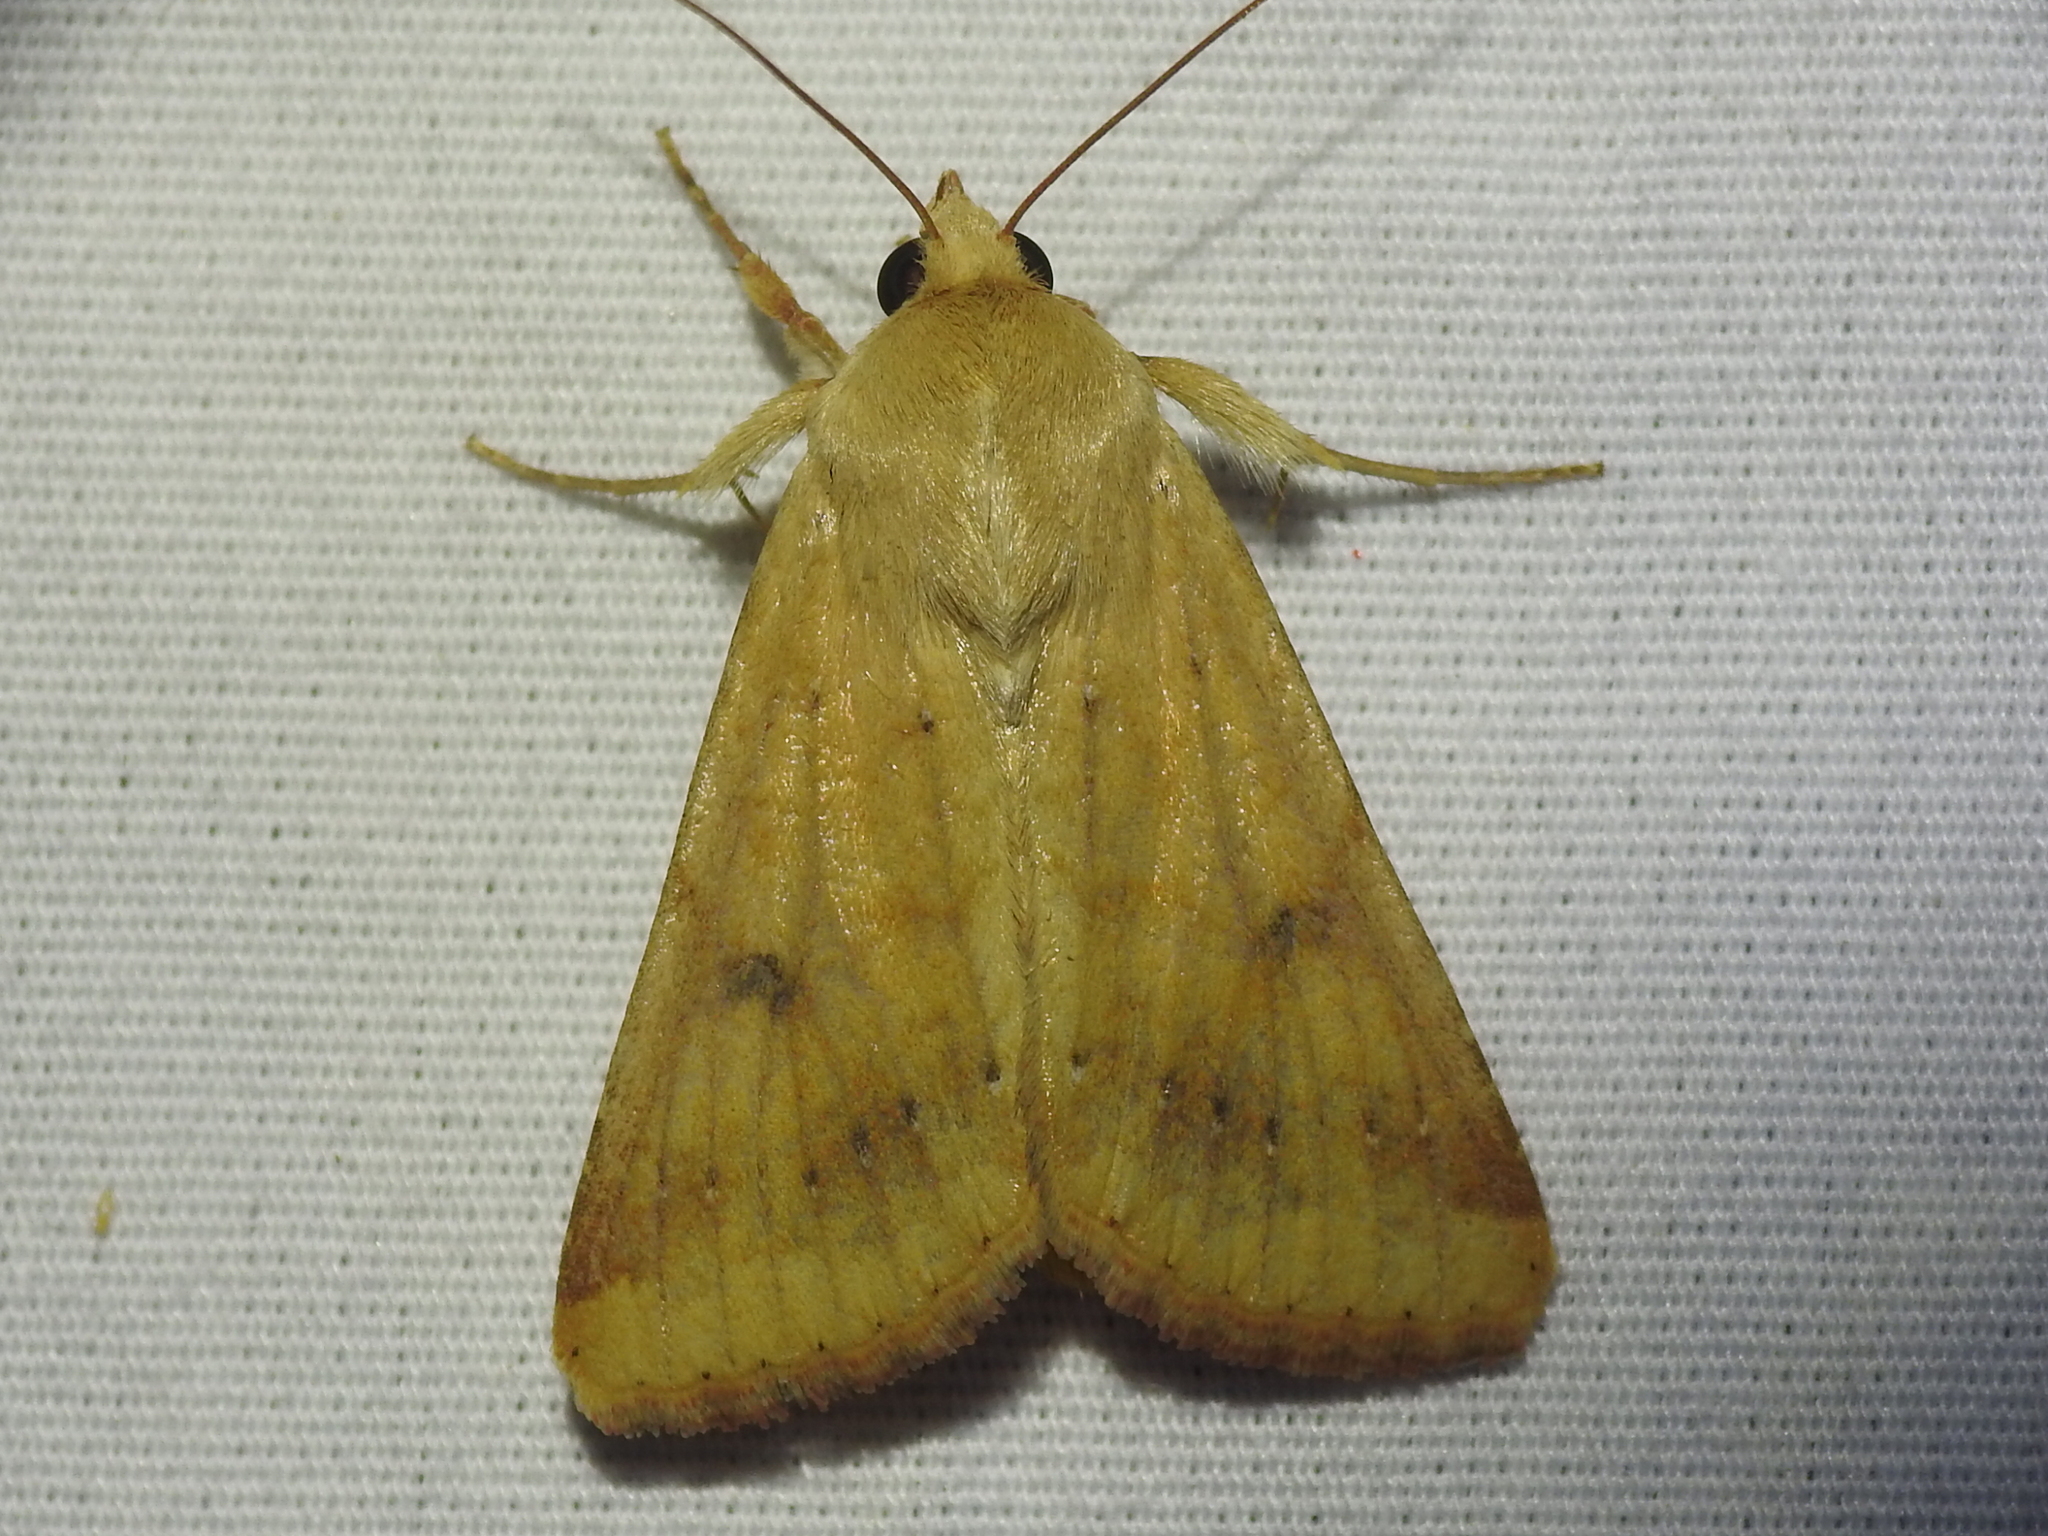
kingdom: Animalia
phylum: Arthropoda
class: Insecta
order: Lepidoptera
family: Noctuidae
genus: Helicoverpa
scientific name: Helicoverpa zea
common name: Bollworm
